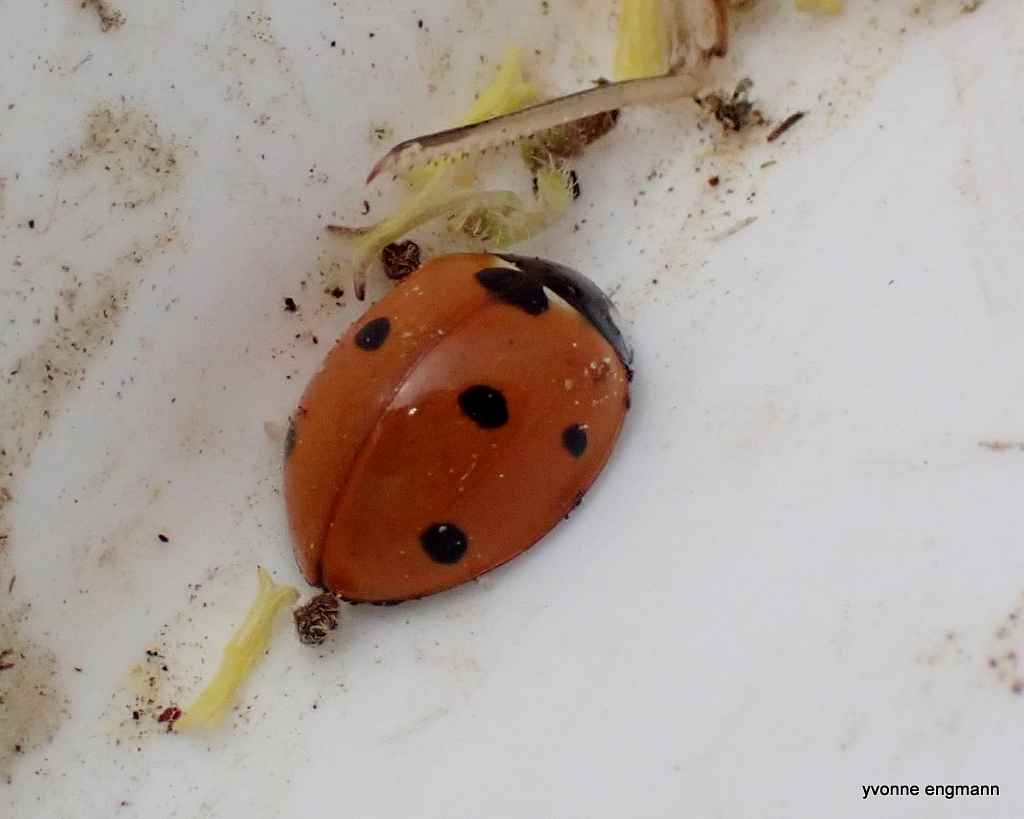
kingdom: Animalia
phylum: Arthropoda
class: Insecta
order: Coleoptera
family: Coccinellidae
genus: Coccinella
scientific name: Coccinella septempunctata
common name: Sevenspotted lady beetle
